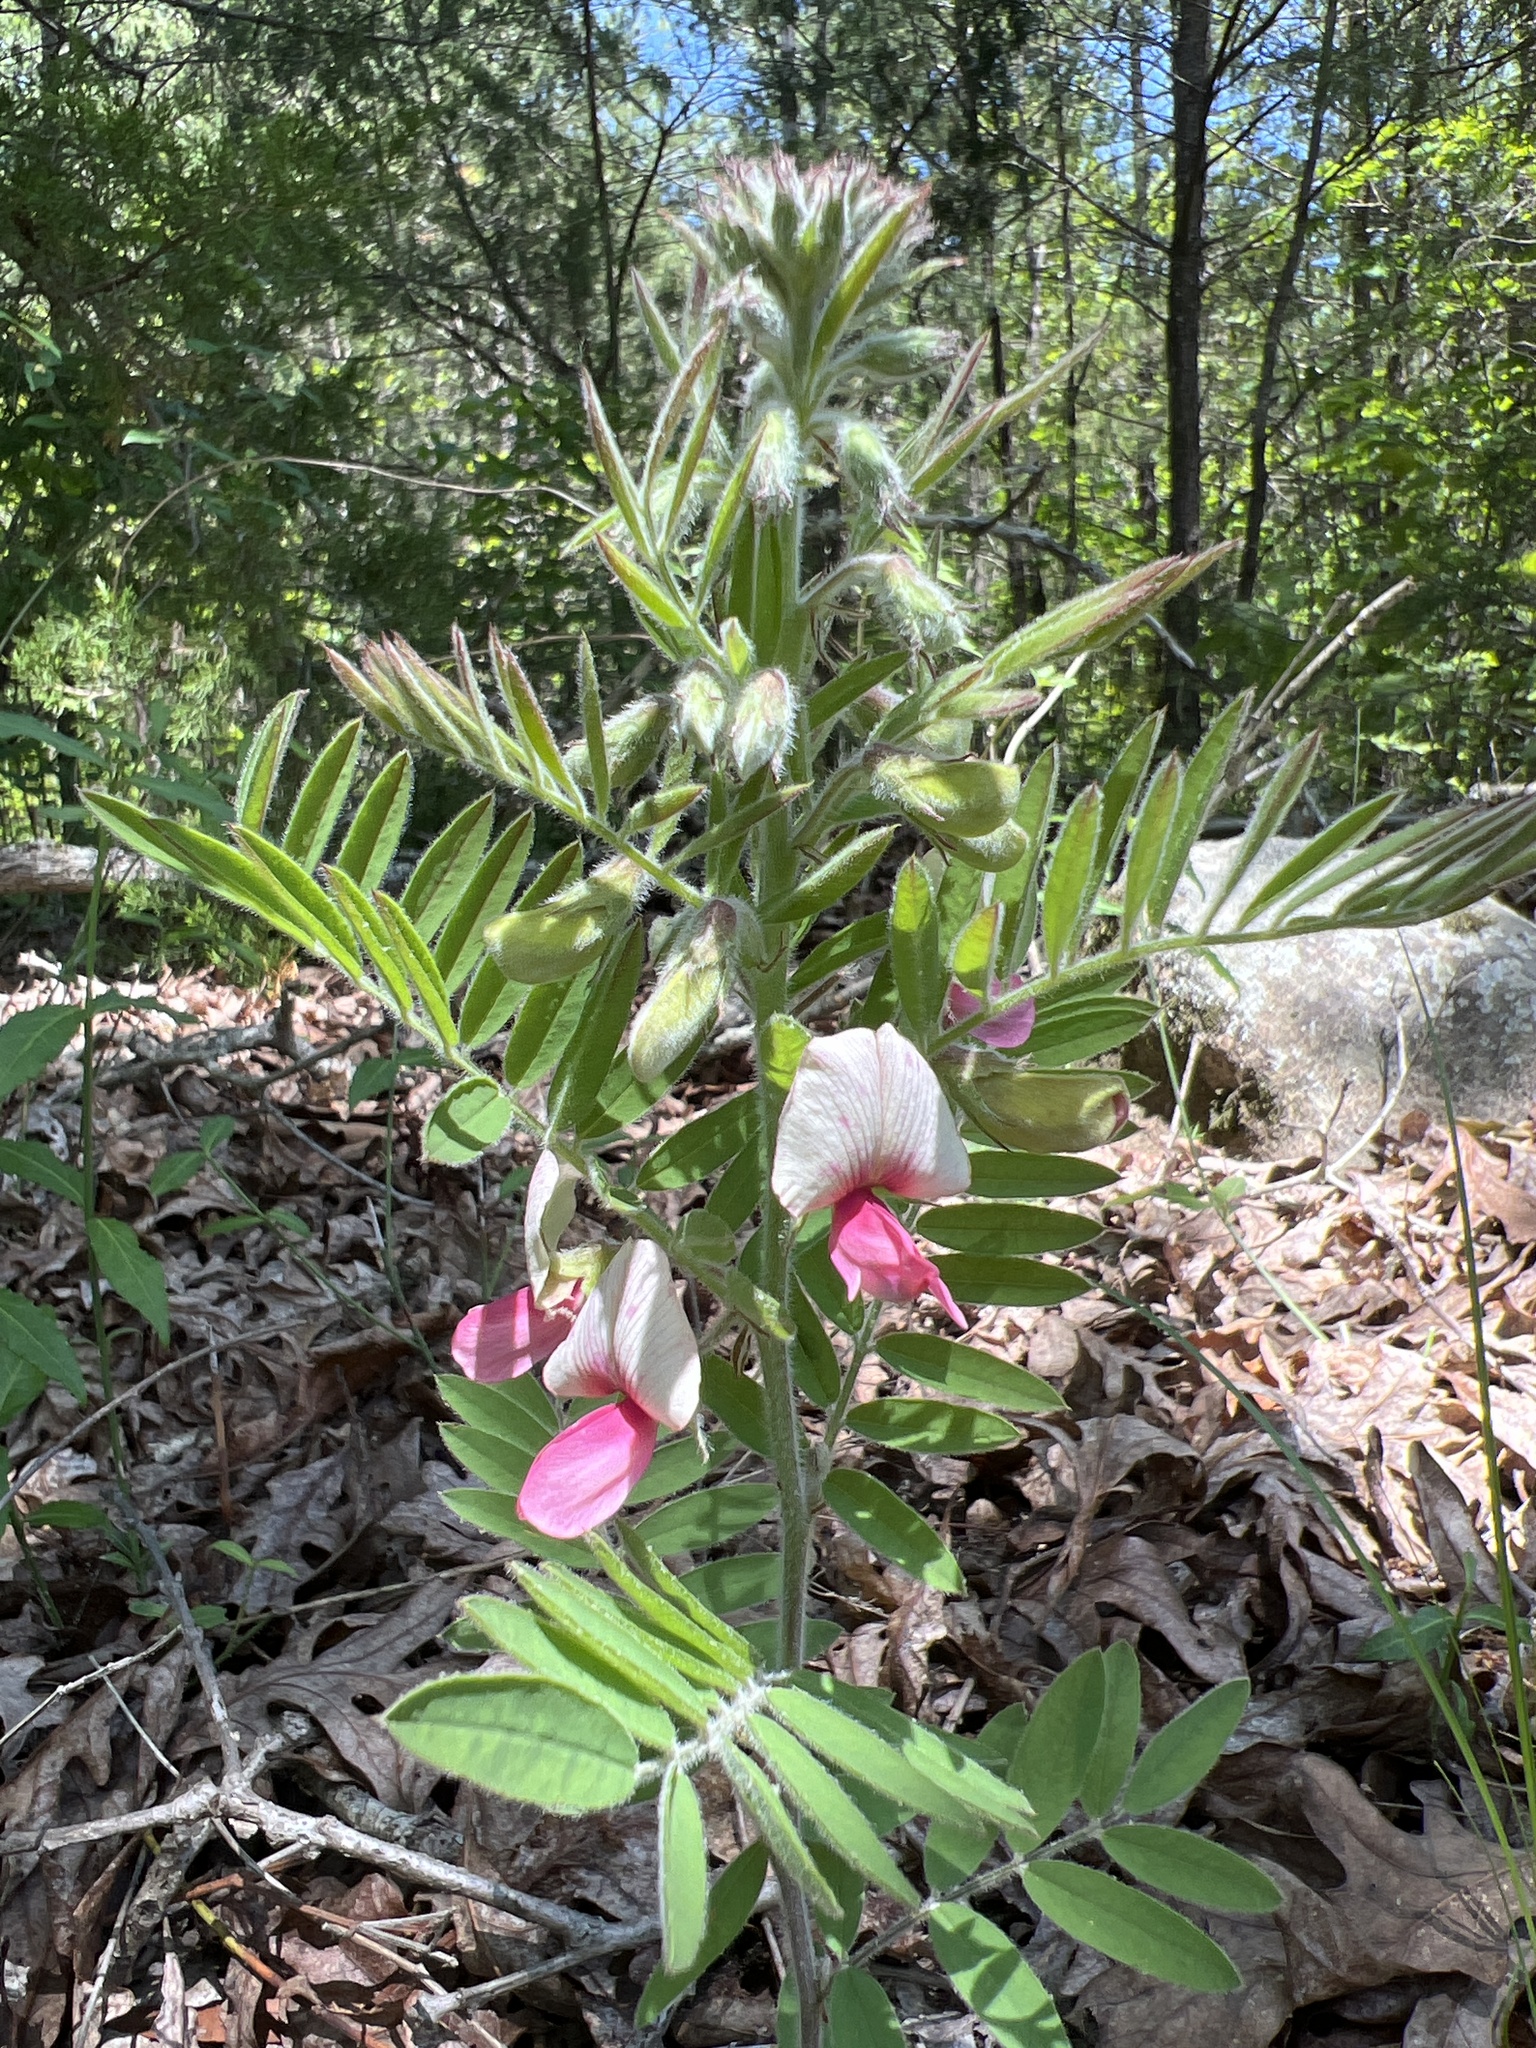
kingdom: Plantae
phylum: Tracheophyta
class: Magnoliopsida
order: Fabales
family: Fabaceae
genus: Tephrosia
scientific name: Tephrosia virginiana
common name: Rabbit-pea
